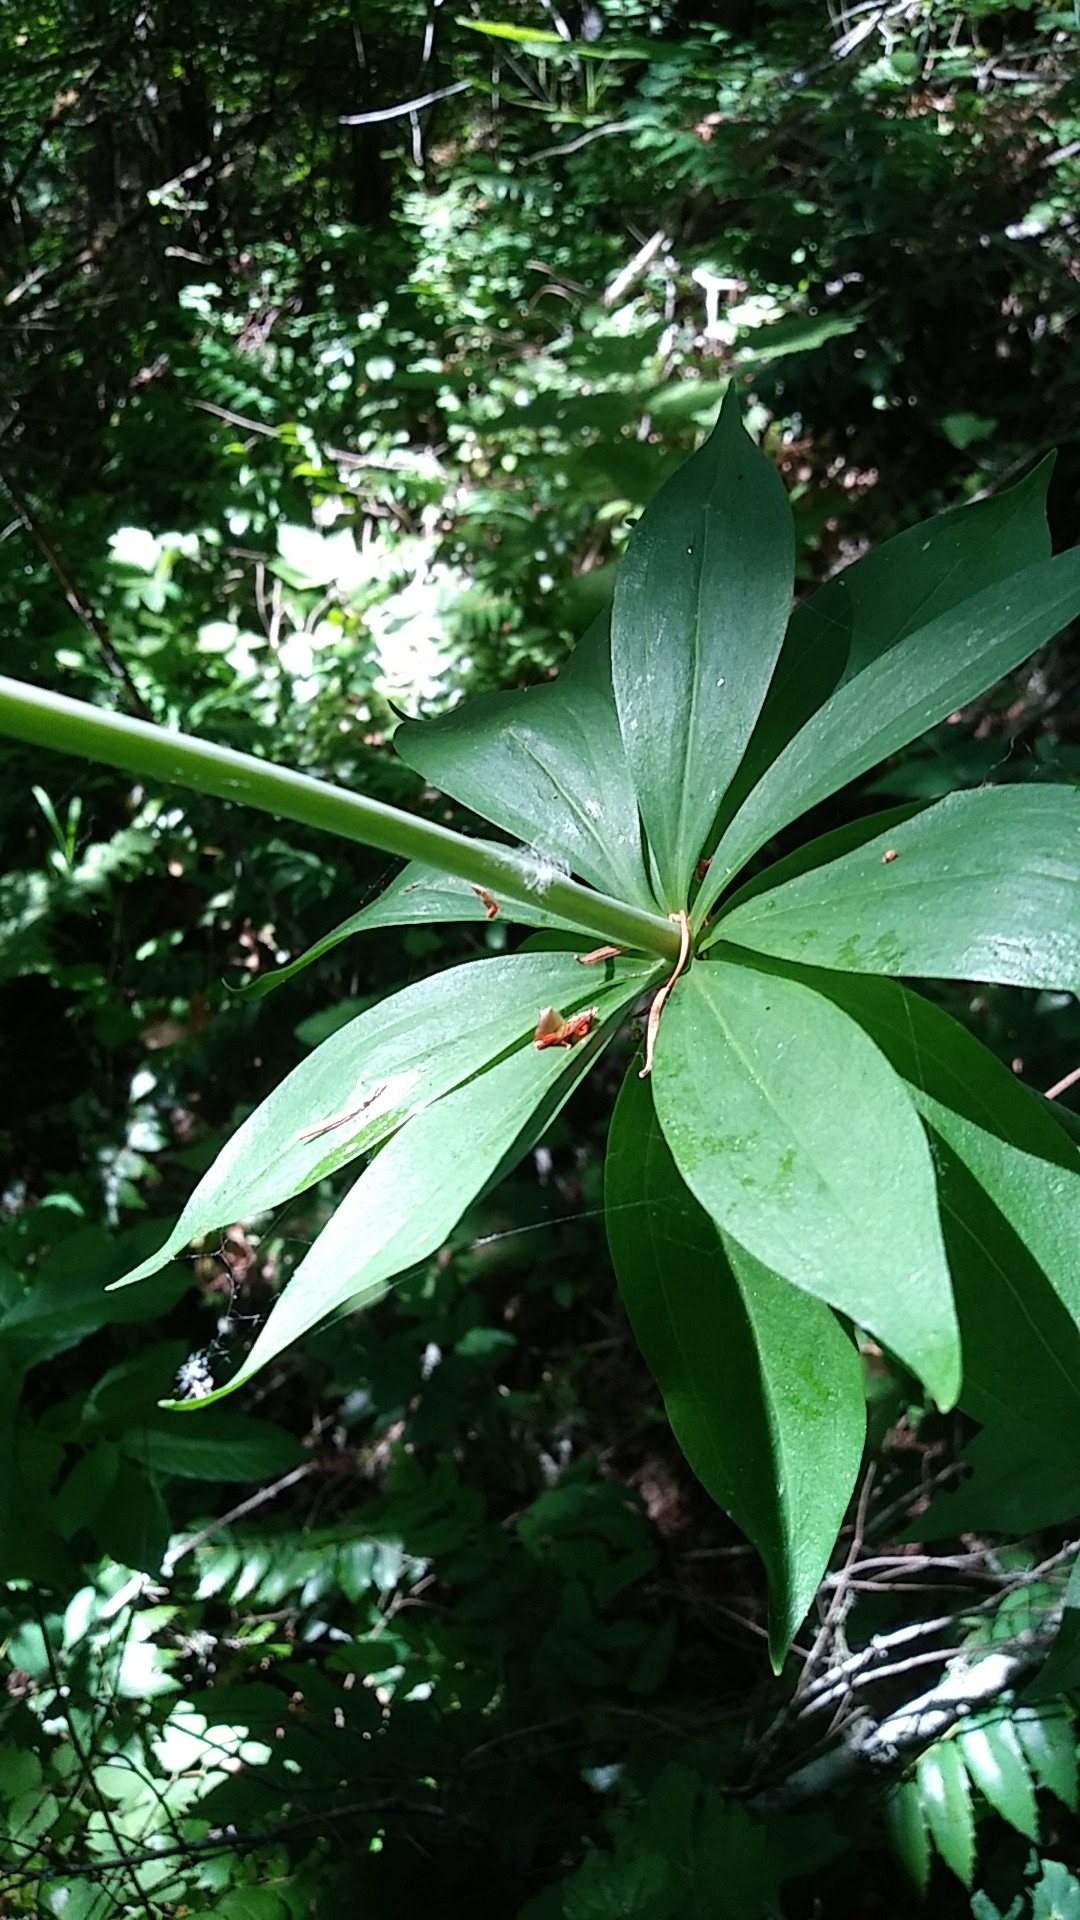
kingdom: Plantae
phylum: Tracheophyta
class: Liliopsida
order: Liliales
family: Liliaceae
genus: Lilium
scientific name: Lilium columbianum
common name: Columbia lily
